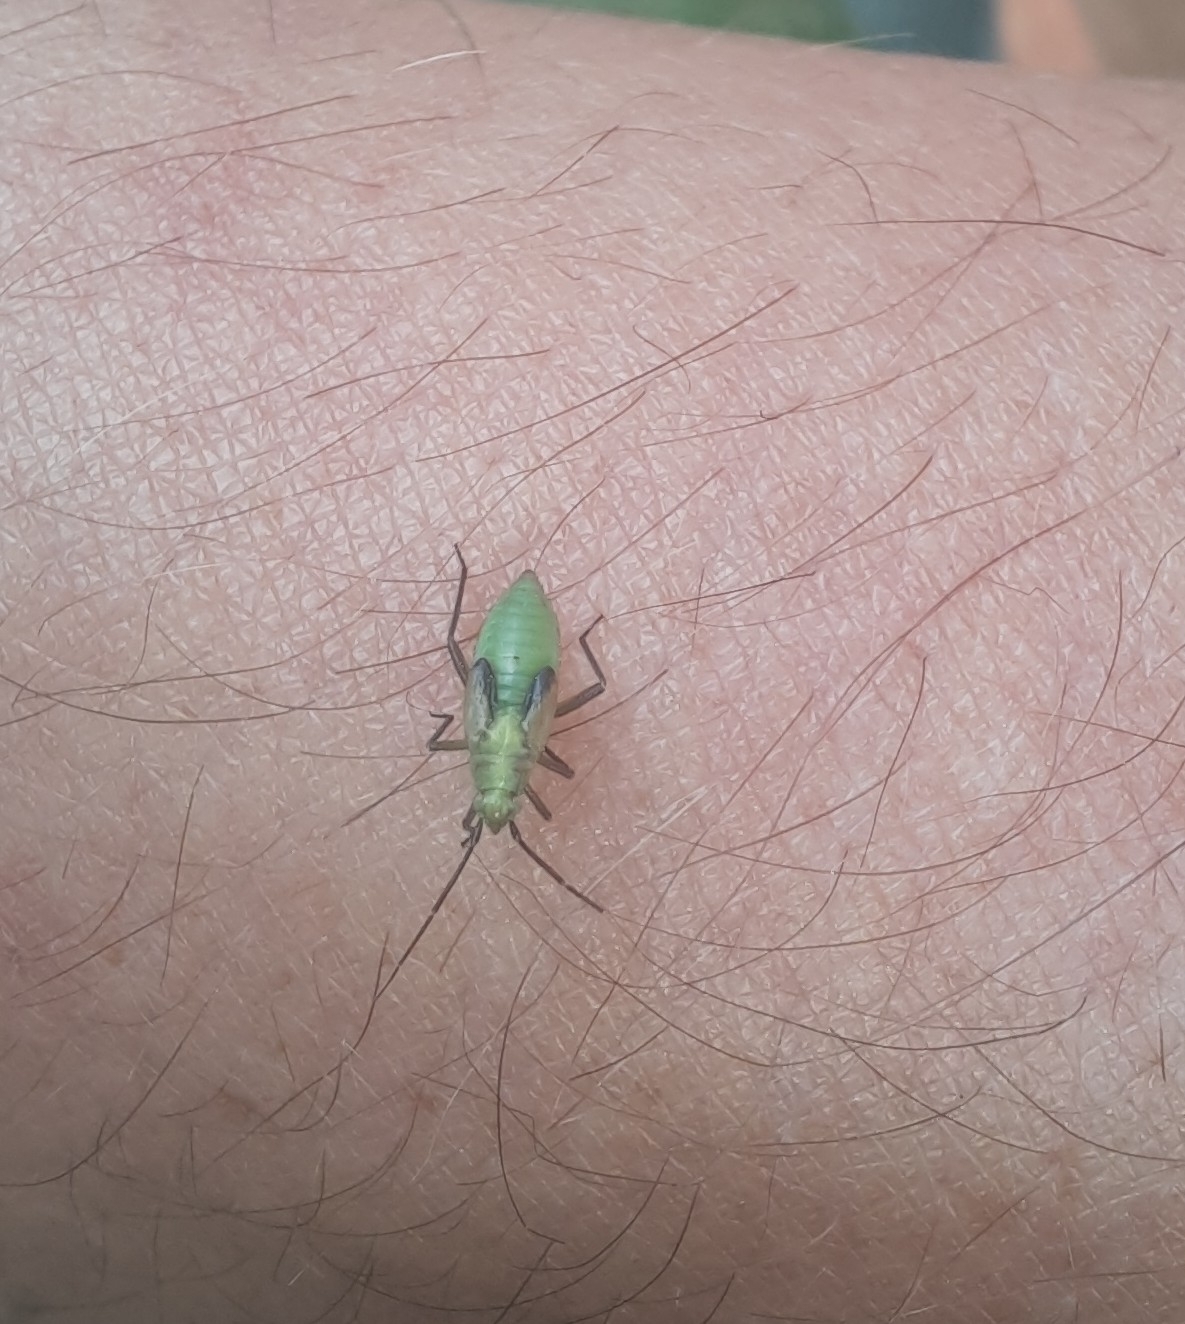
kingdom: Animalia
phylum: Arthropoda
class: Insecta
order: Hemiptera
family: Miridae
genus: Stenotus
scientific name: Stenotus binotatus
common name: Plant bug
